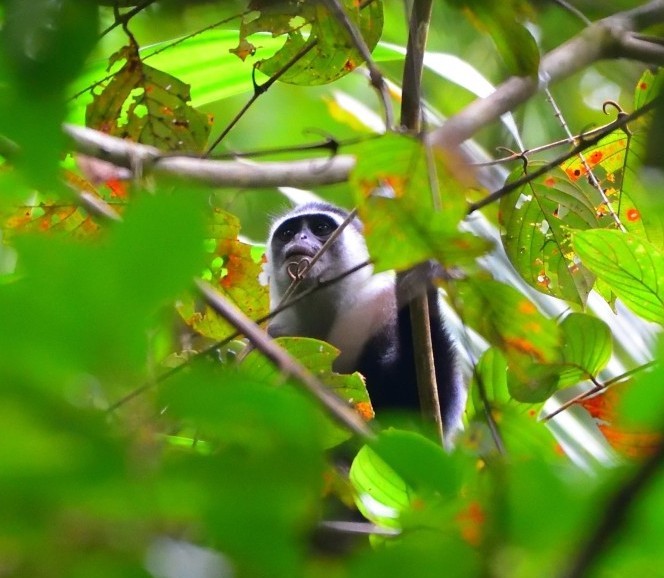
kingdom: Animalia
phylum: Chordata
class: Mammalia
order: Primates
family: Cercopithecidae
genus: Presbytis
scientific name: Presbytis siberu
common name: Siberut langur
